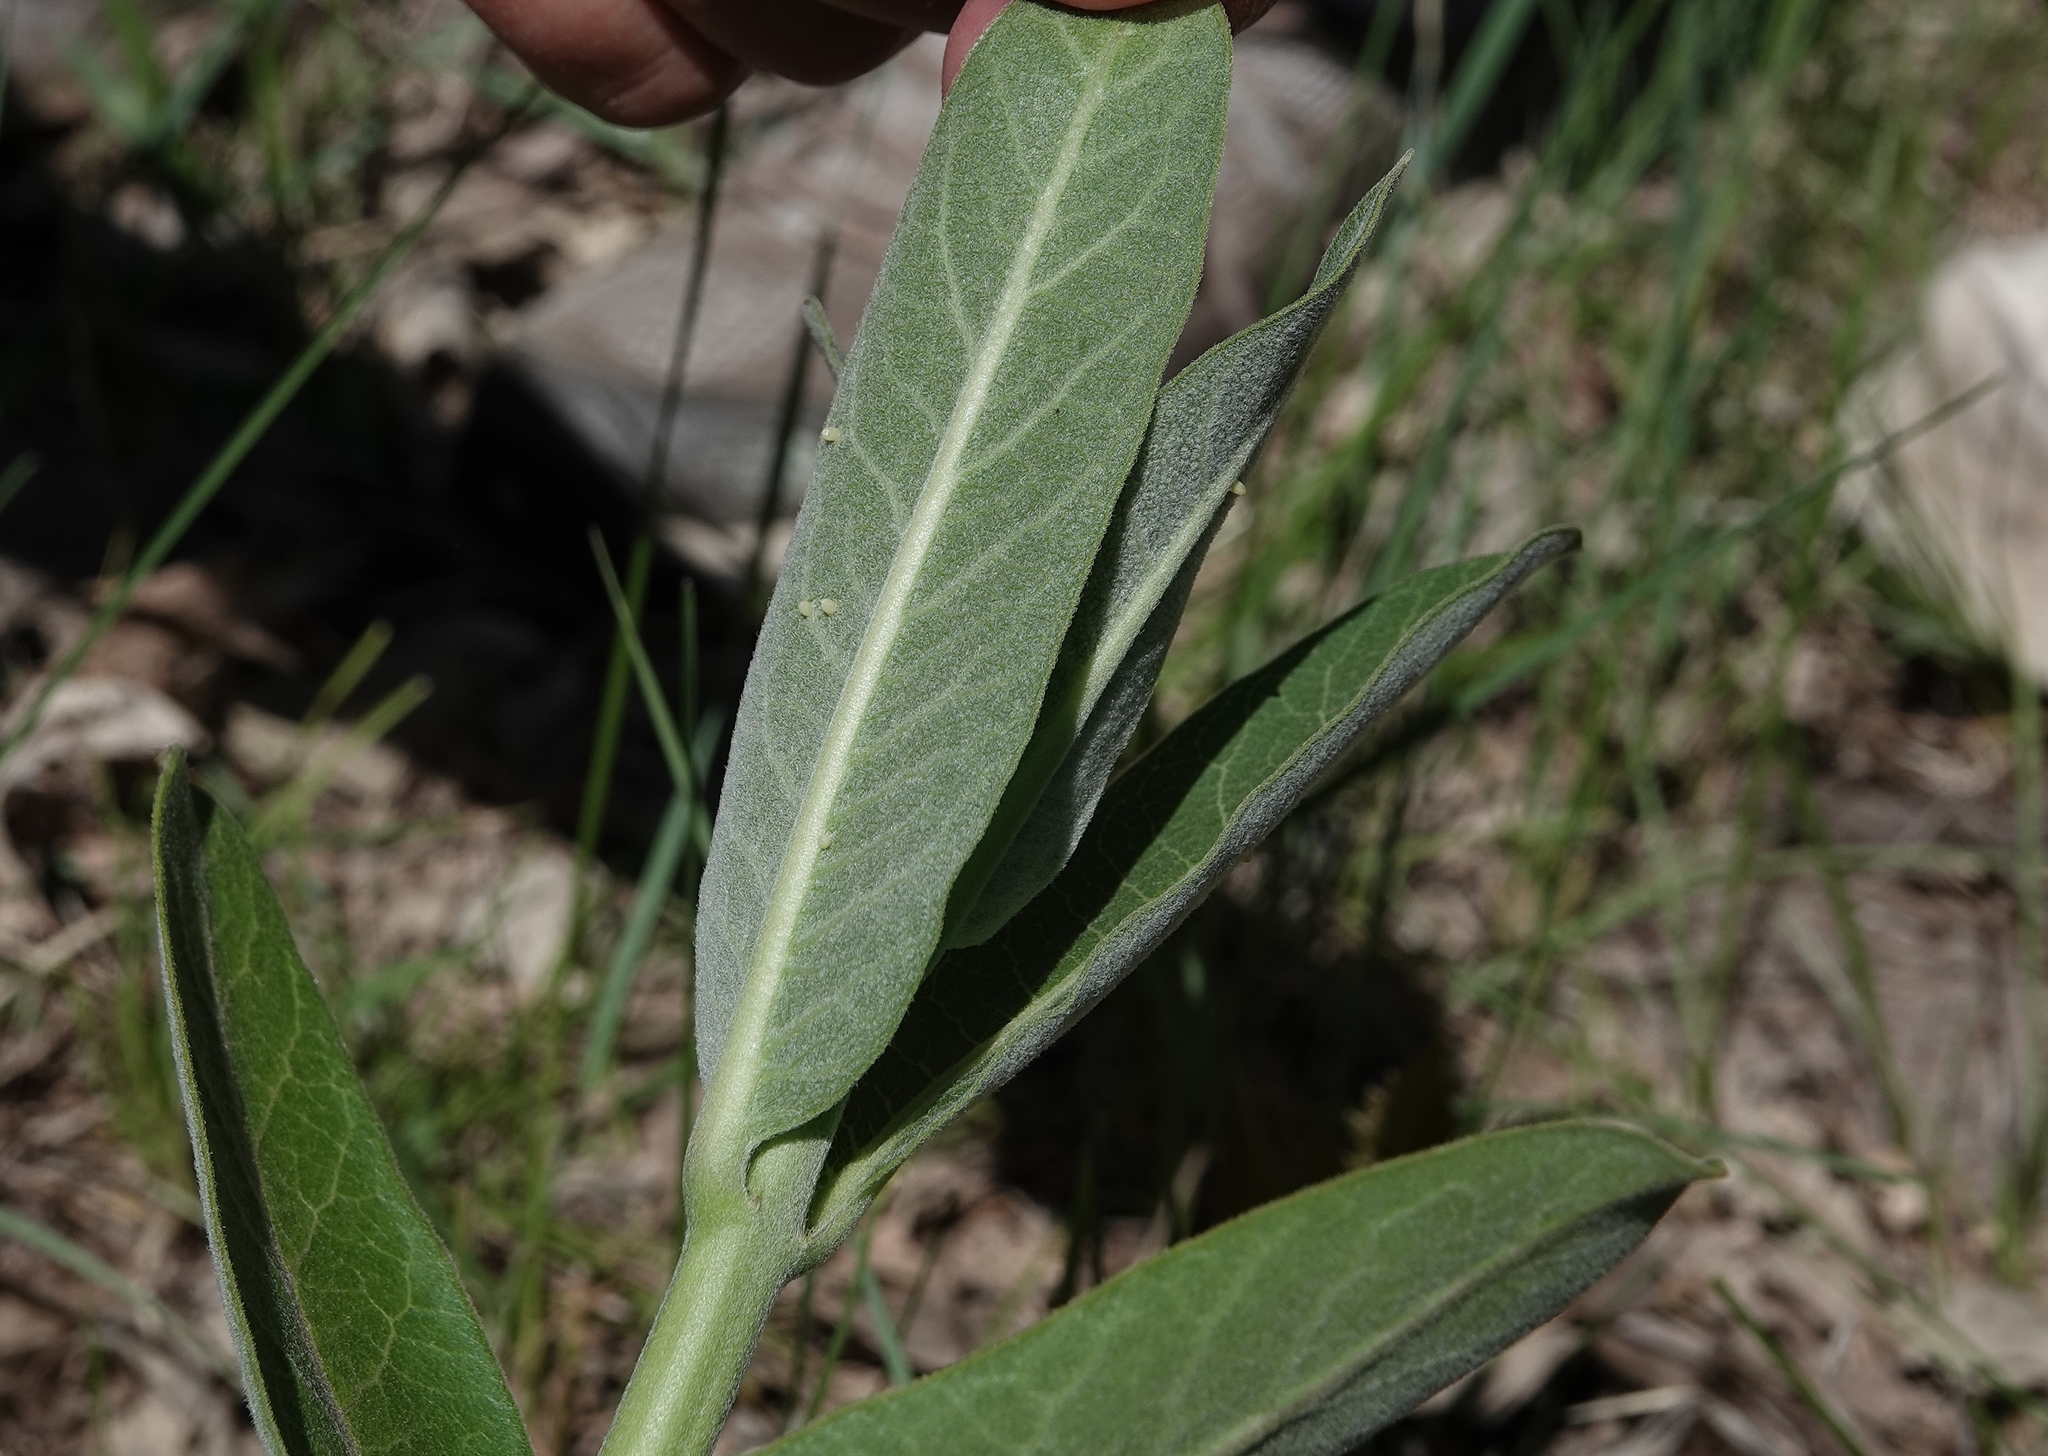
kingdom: Animalia
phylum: Arthropoda
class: Insecta
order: Lepidoptera
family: Nymphalidae
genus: Danaus
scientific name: Danaus plexippus
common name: Monarch
